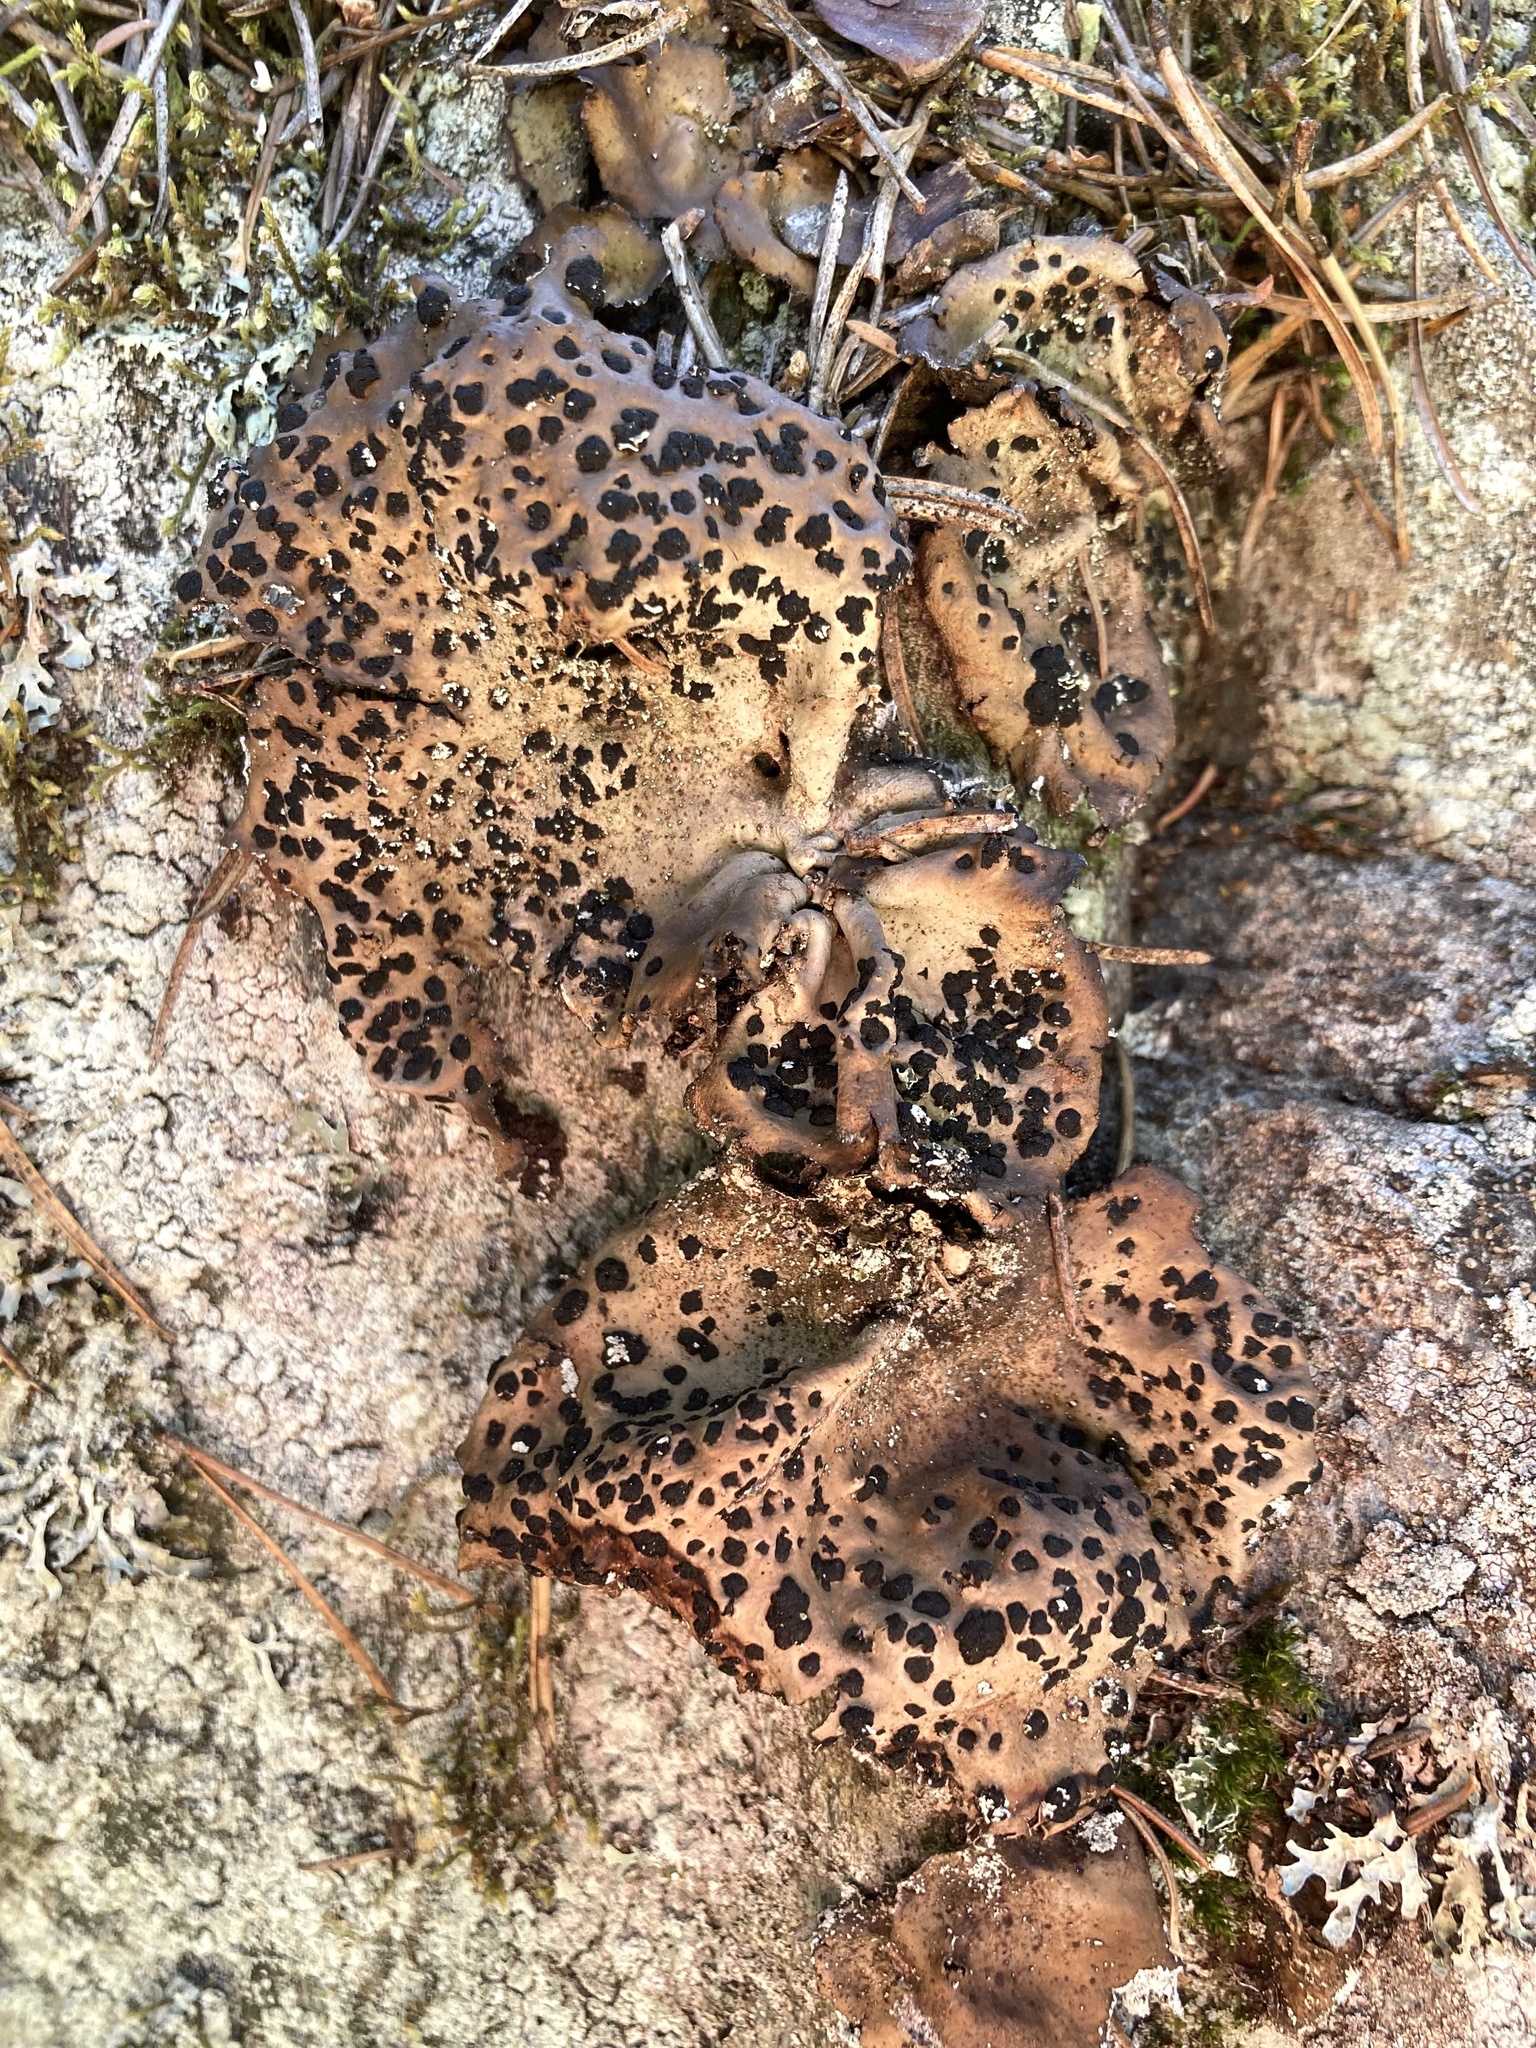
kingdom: Fungi
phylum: Ascomycota
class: Lecanoromycetes
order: Umbilicariales
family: Umbilicariaceae
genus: Umbilicaria
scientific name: Umbilicaria muhlenbergii
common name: Lesser rocktripe
